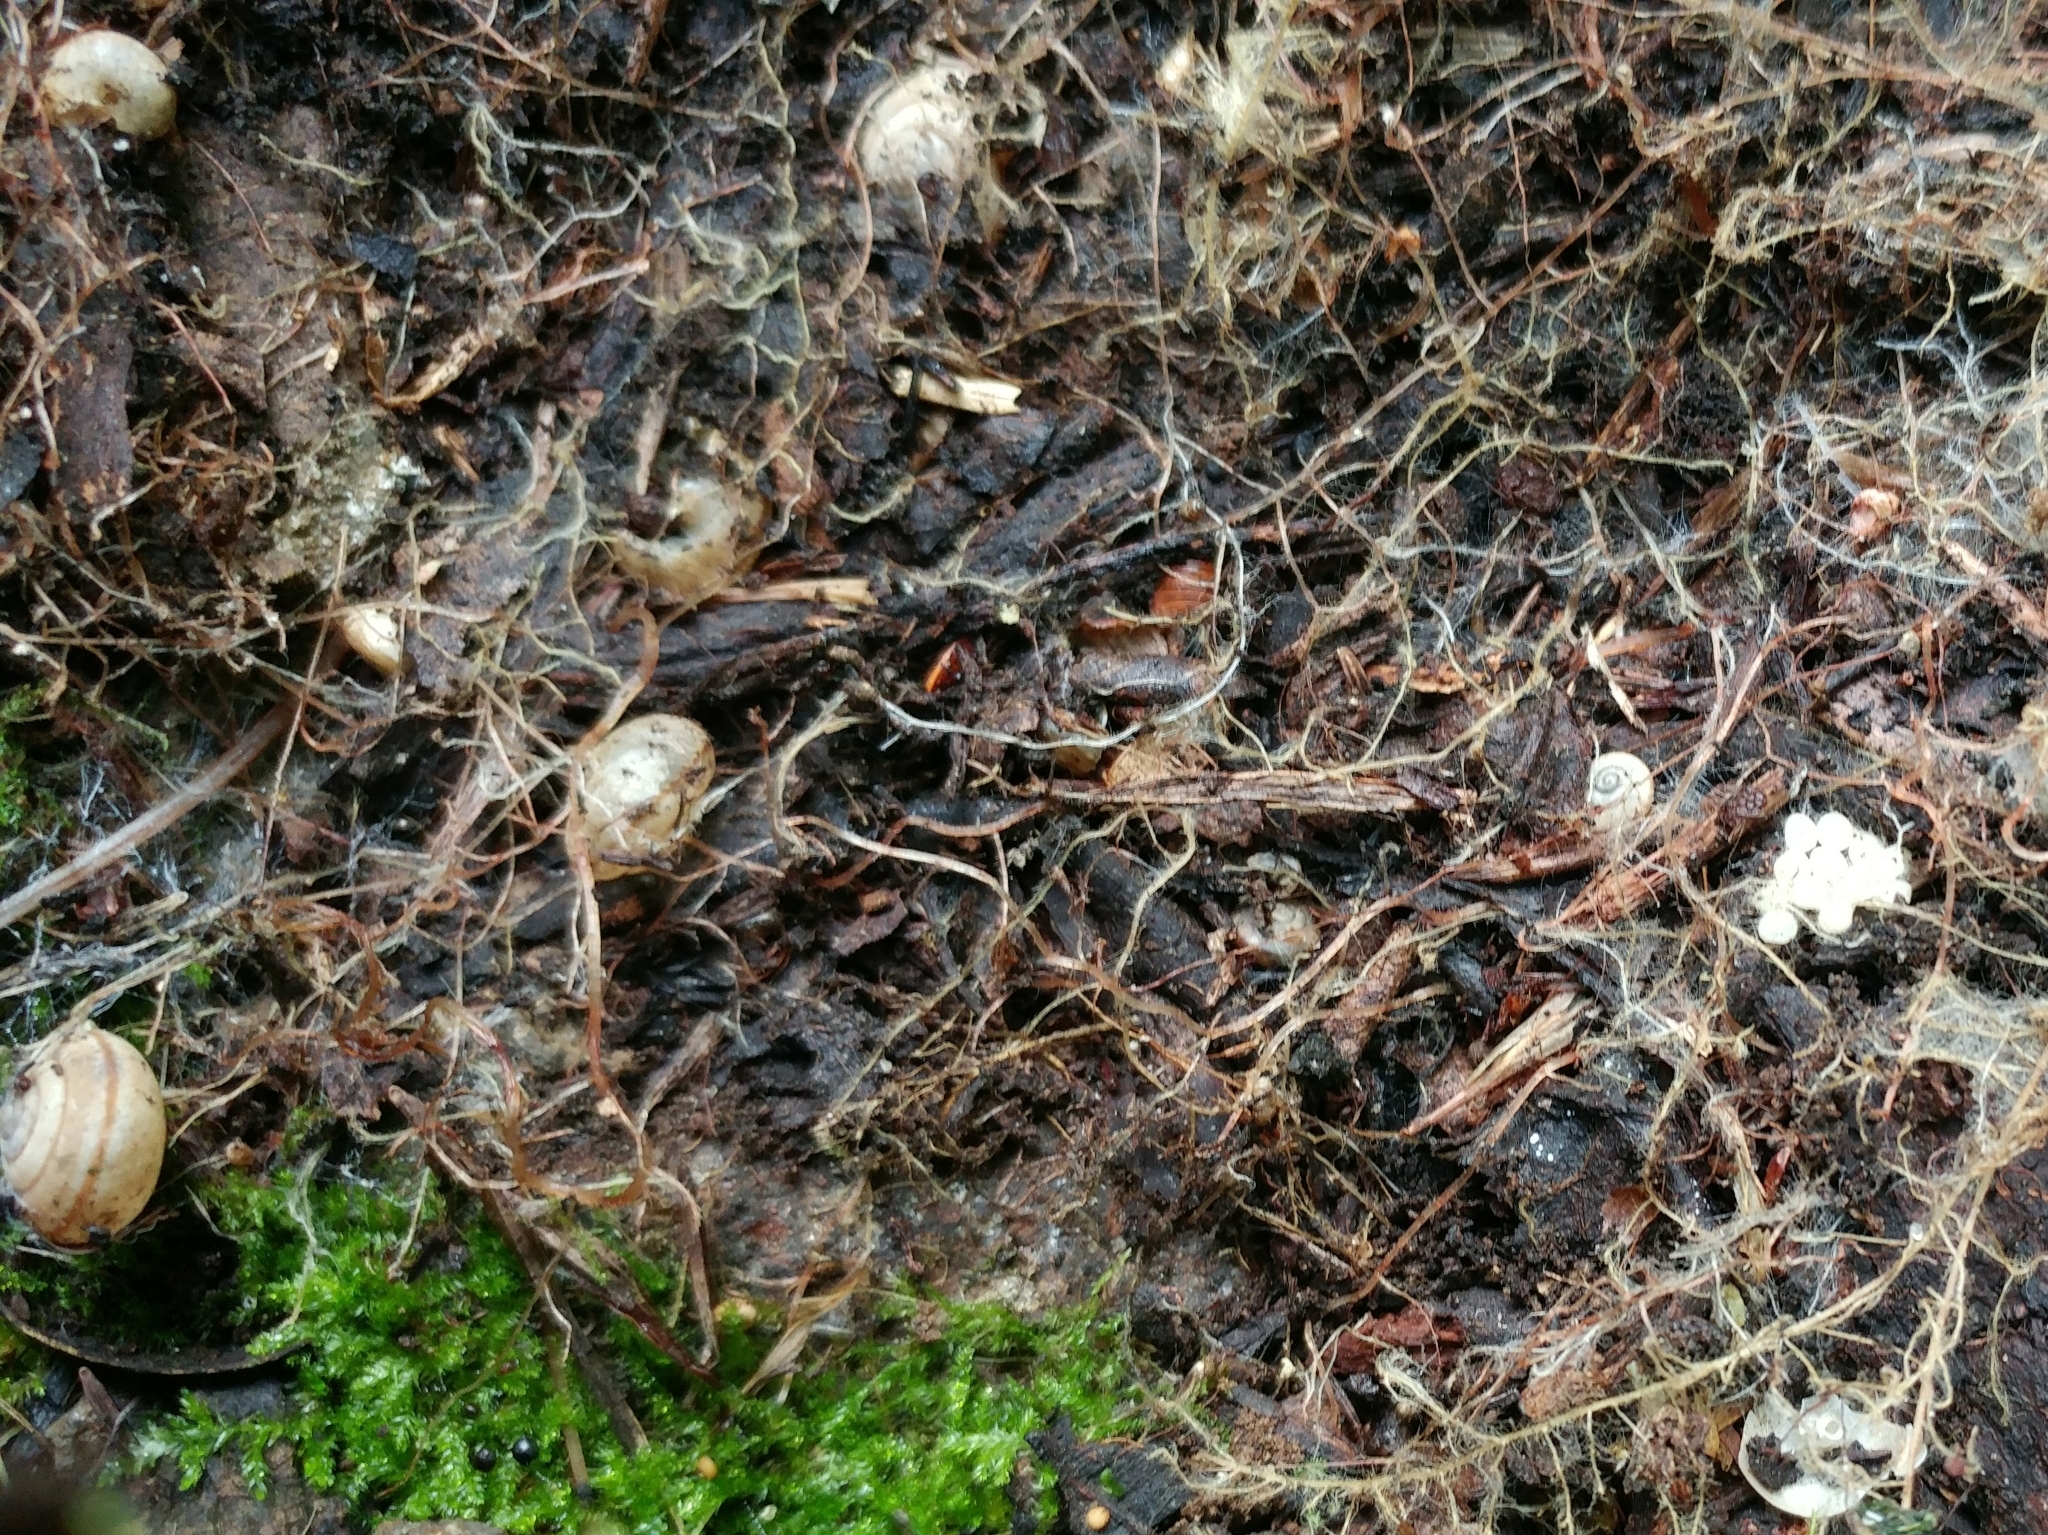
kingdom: Animalia
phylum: Mollusca
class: Gastropoda
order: Stylommatophora
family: Xanthonychidae
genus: Micrarionta
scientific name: Micrarionta gabbii
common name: Gabb's snail
